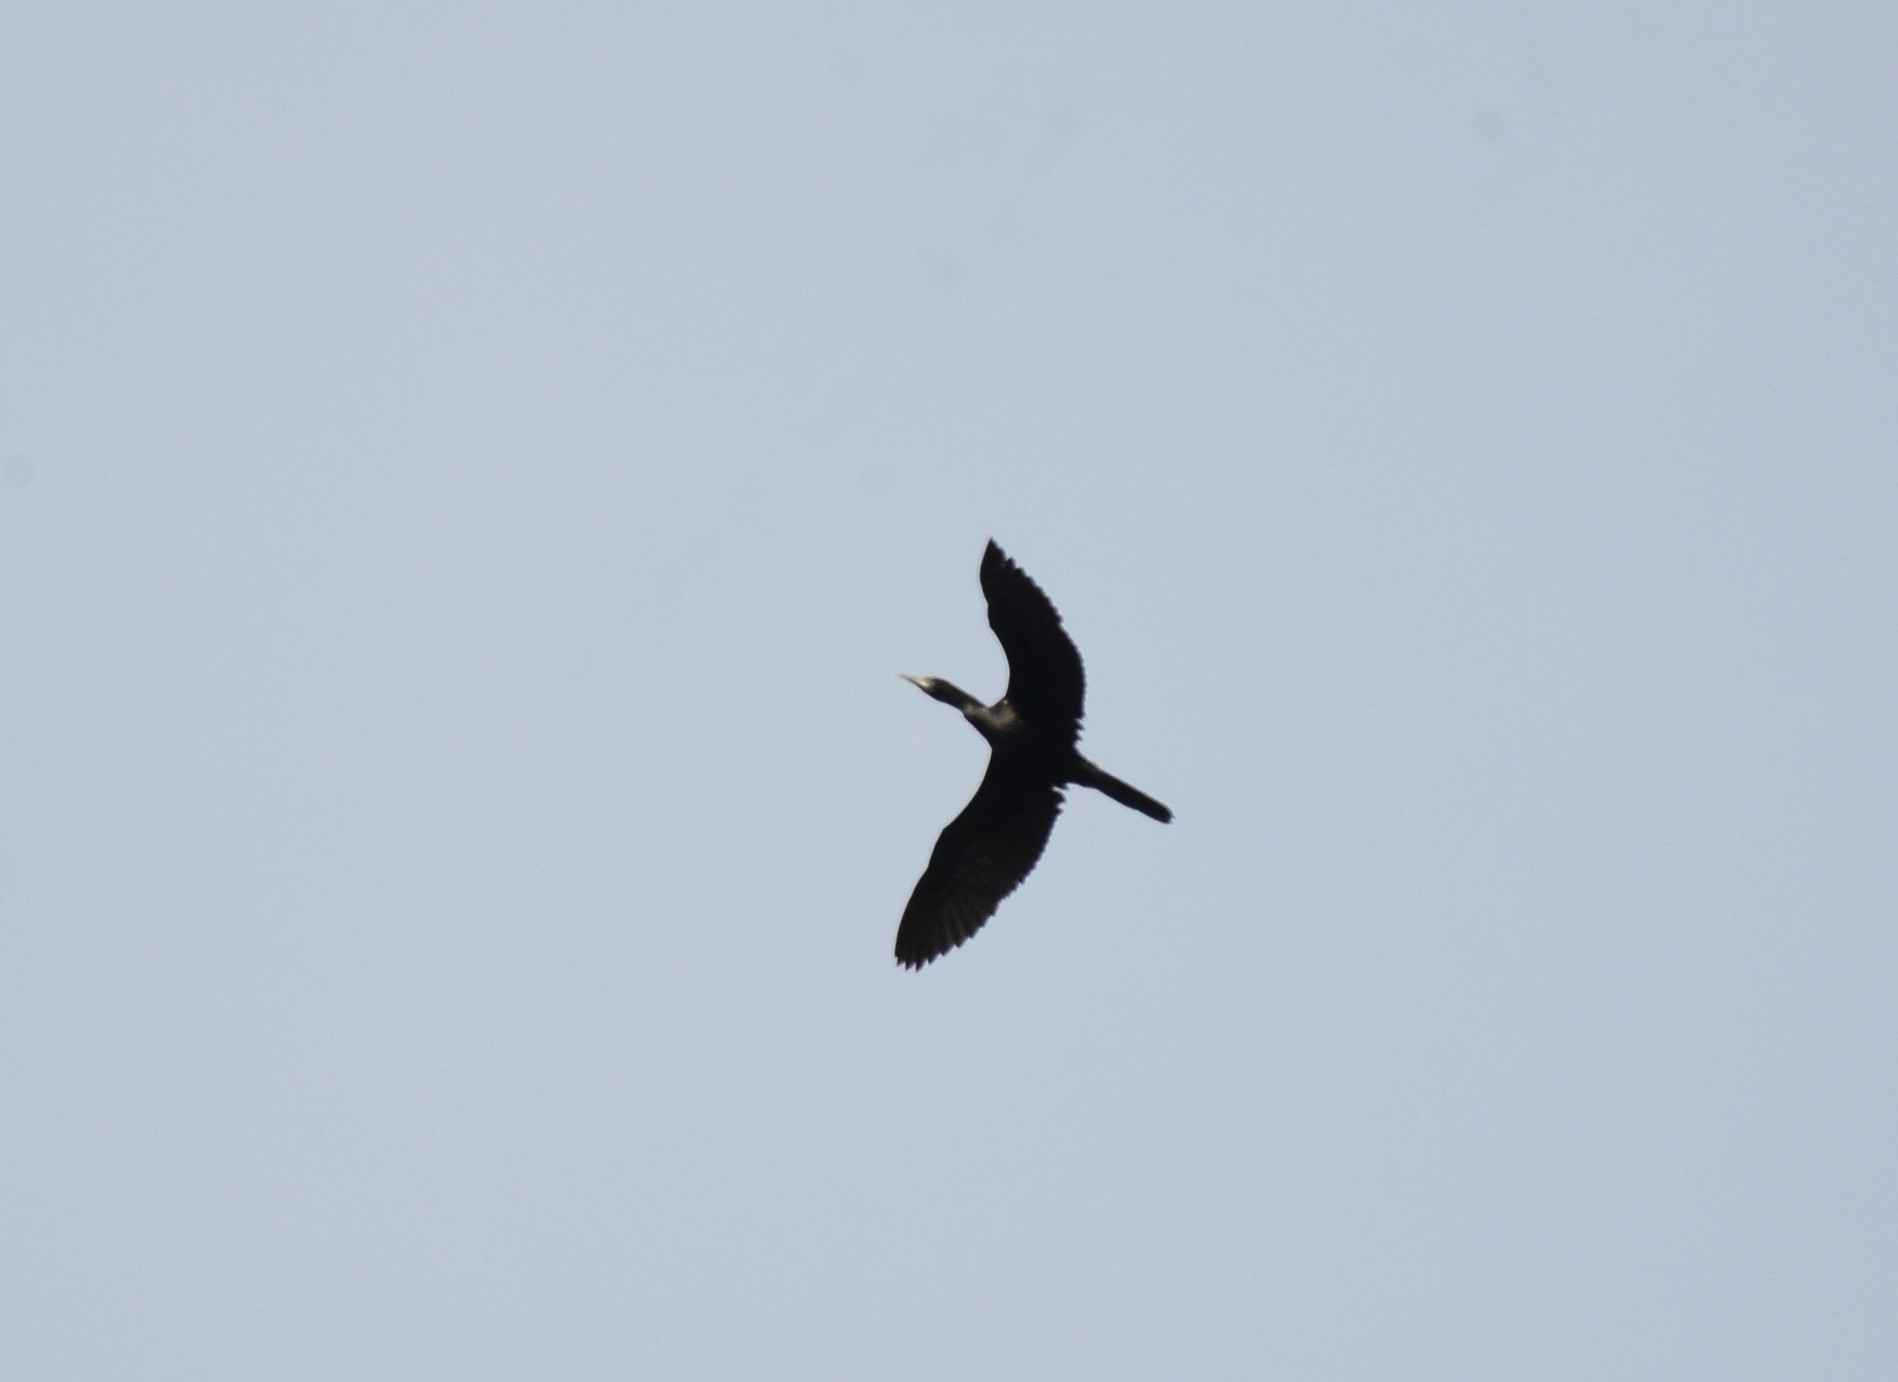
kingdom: Animalia
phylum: Chordata
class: Aves
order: Suliformes
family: Phalacrocoracidae
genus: Microcarbo
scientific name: Microcarbo niger
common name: Little cormorant
